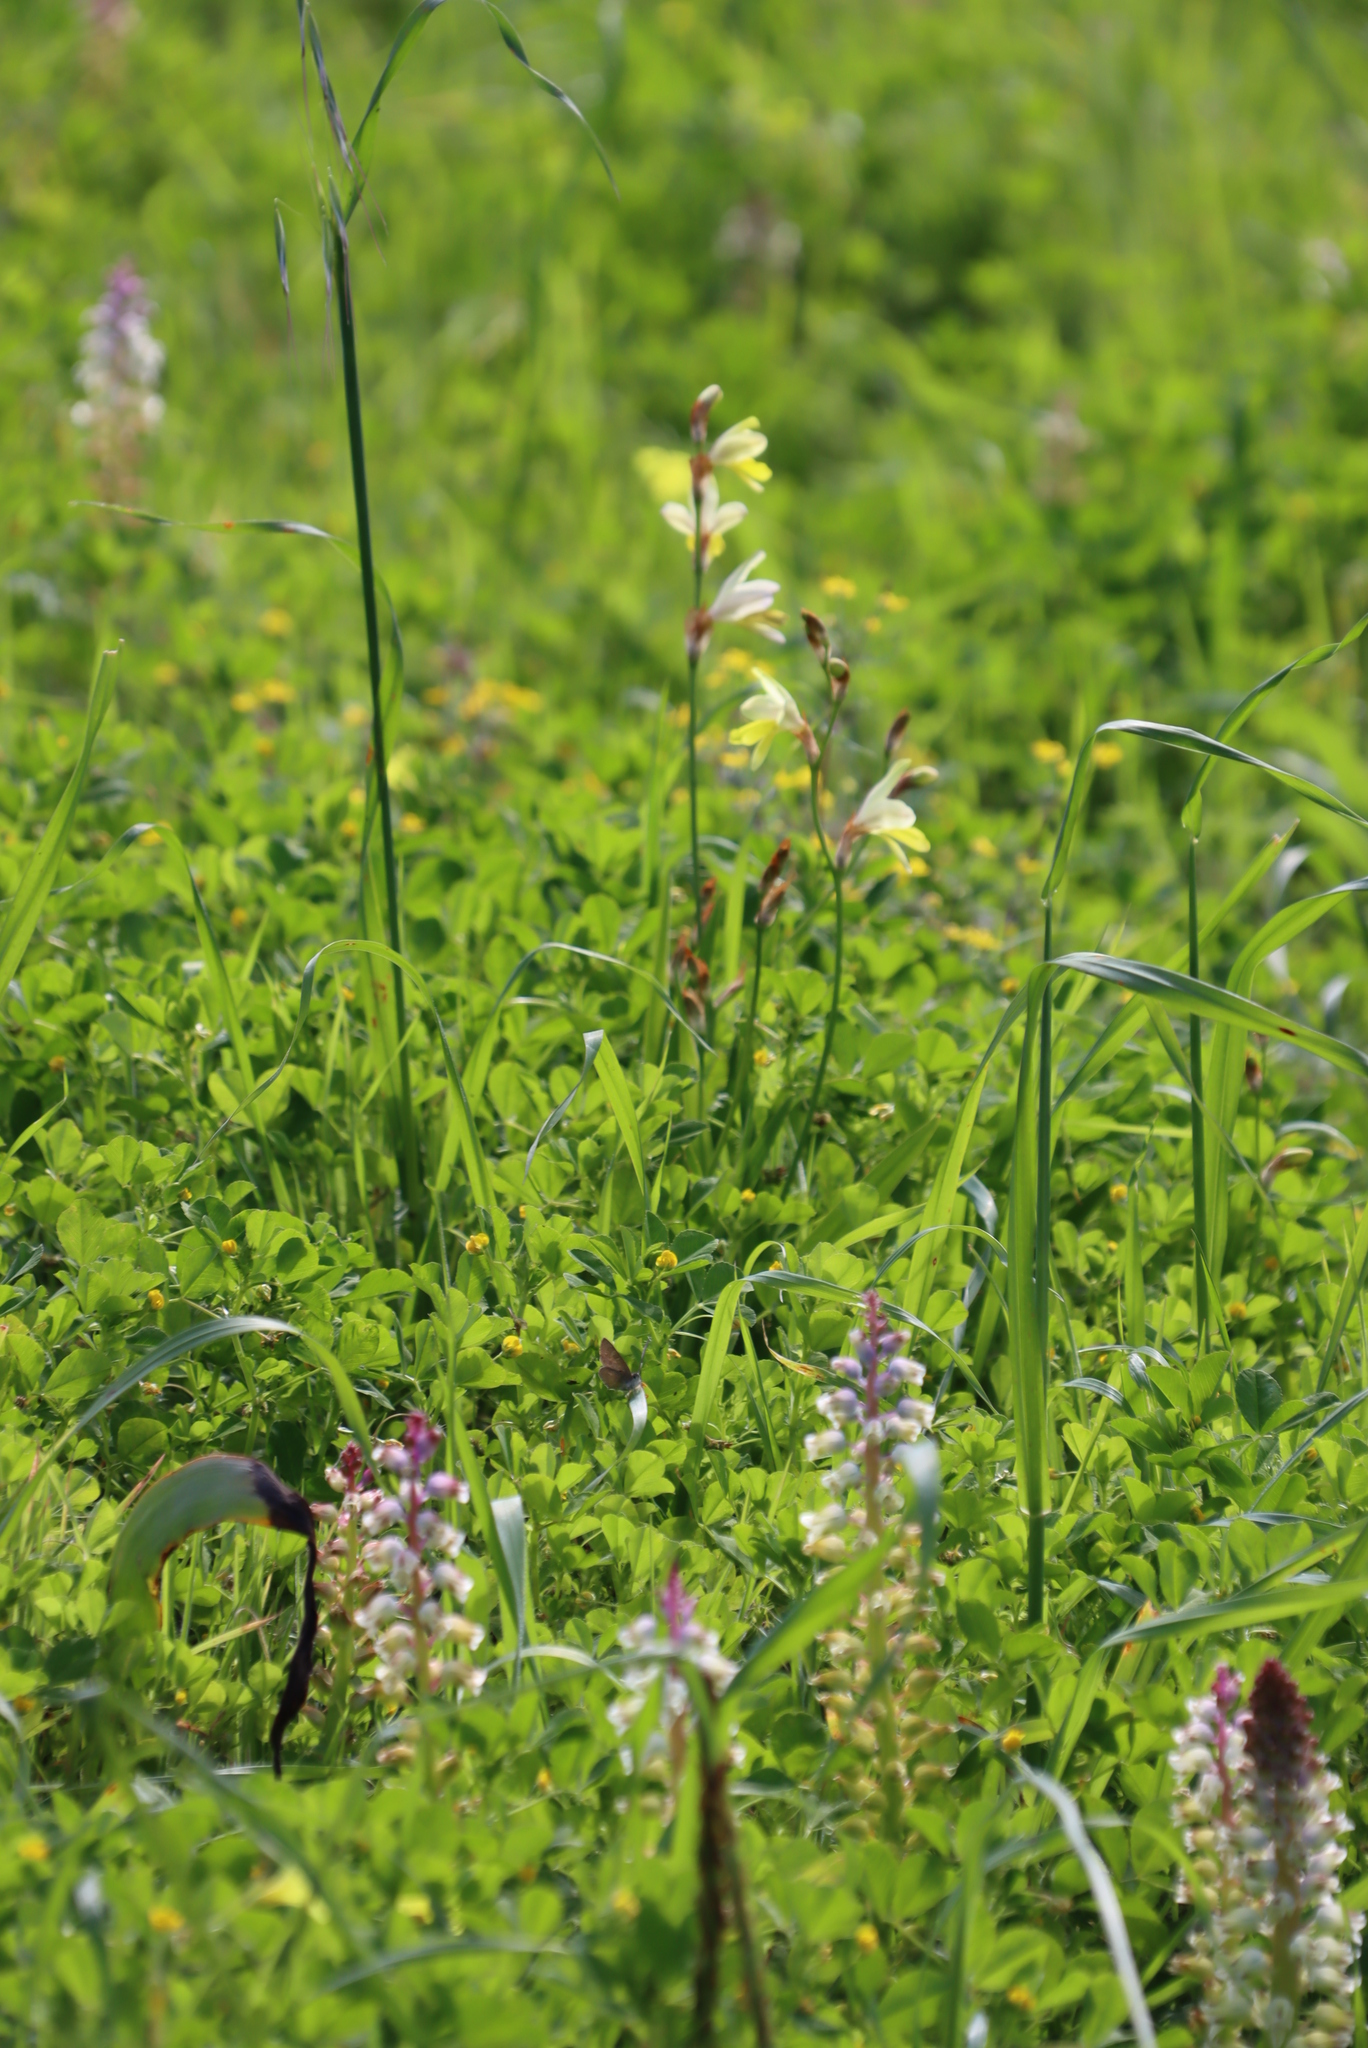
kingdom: Plantae
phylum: Tracheophyta
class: Liliopsida
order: Asparagales
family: Iridaceae
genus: Sparaxis
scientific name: Sparaxis
